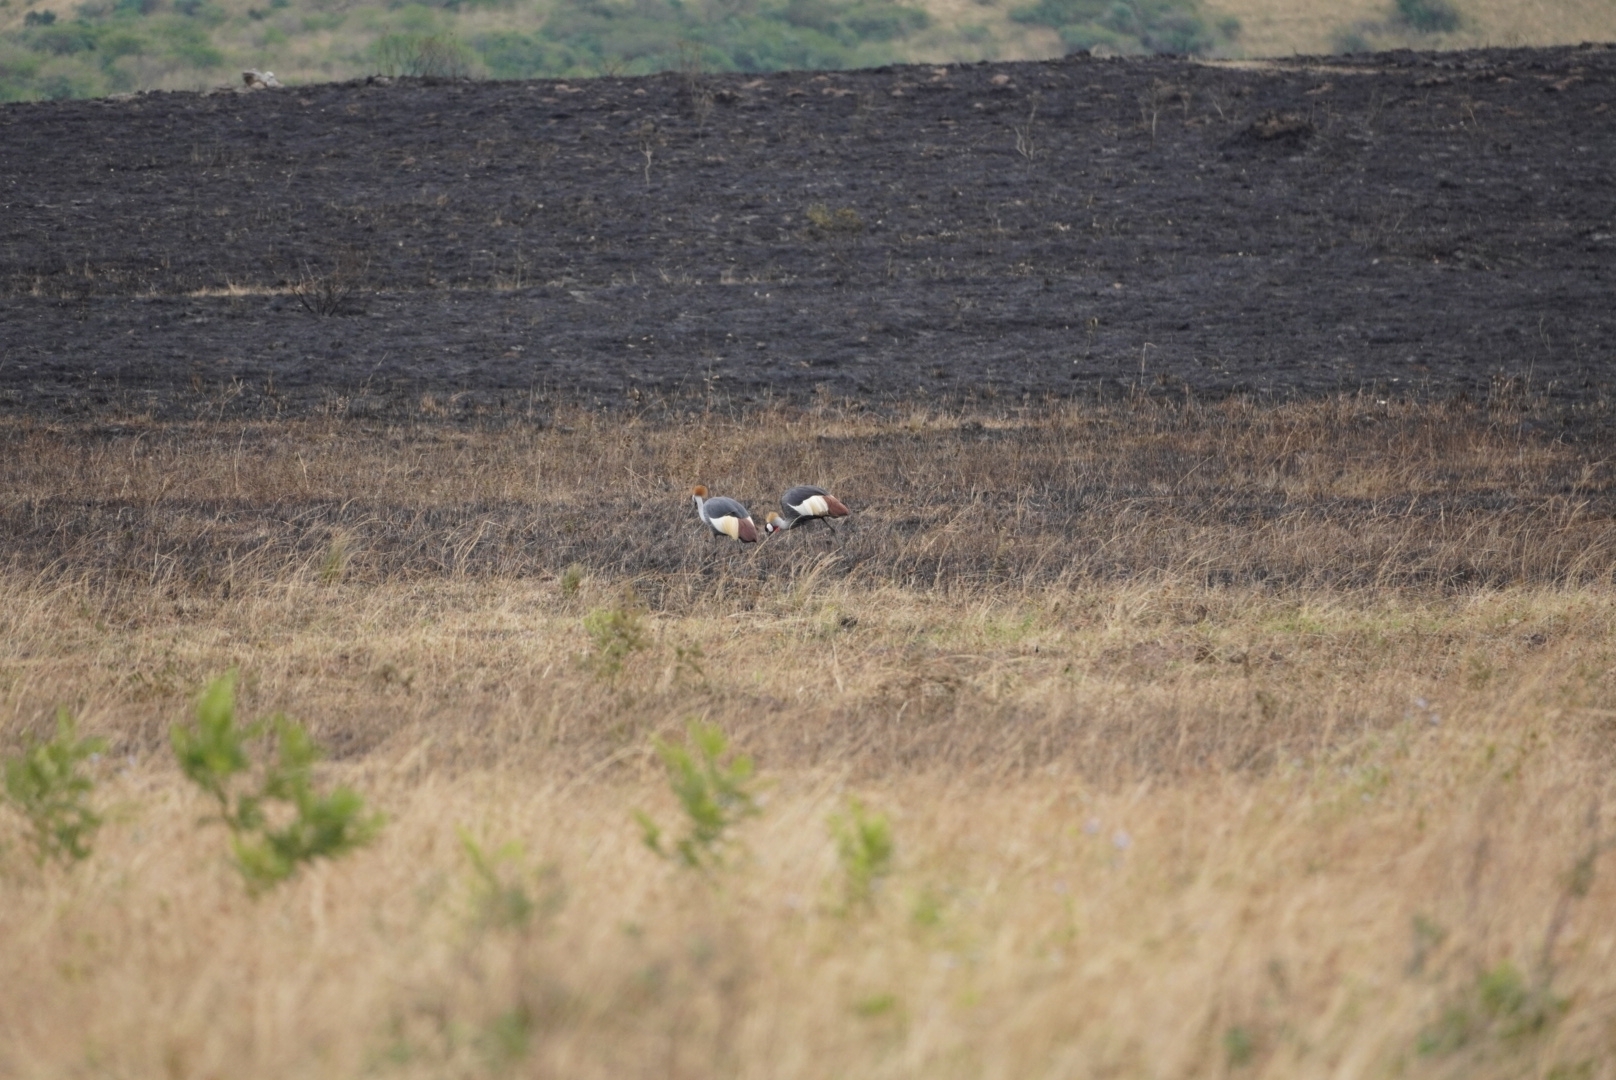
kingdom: Animalia
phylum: Chordata
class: Aves
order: Gruiformes
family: Gruidae
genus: Balearica
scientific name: Balearica regulorum
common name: Grey crowned crane
